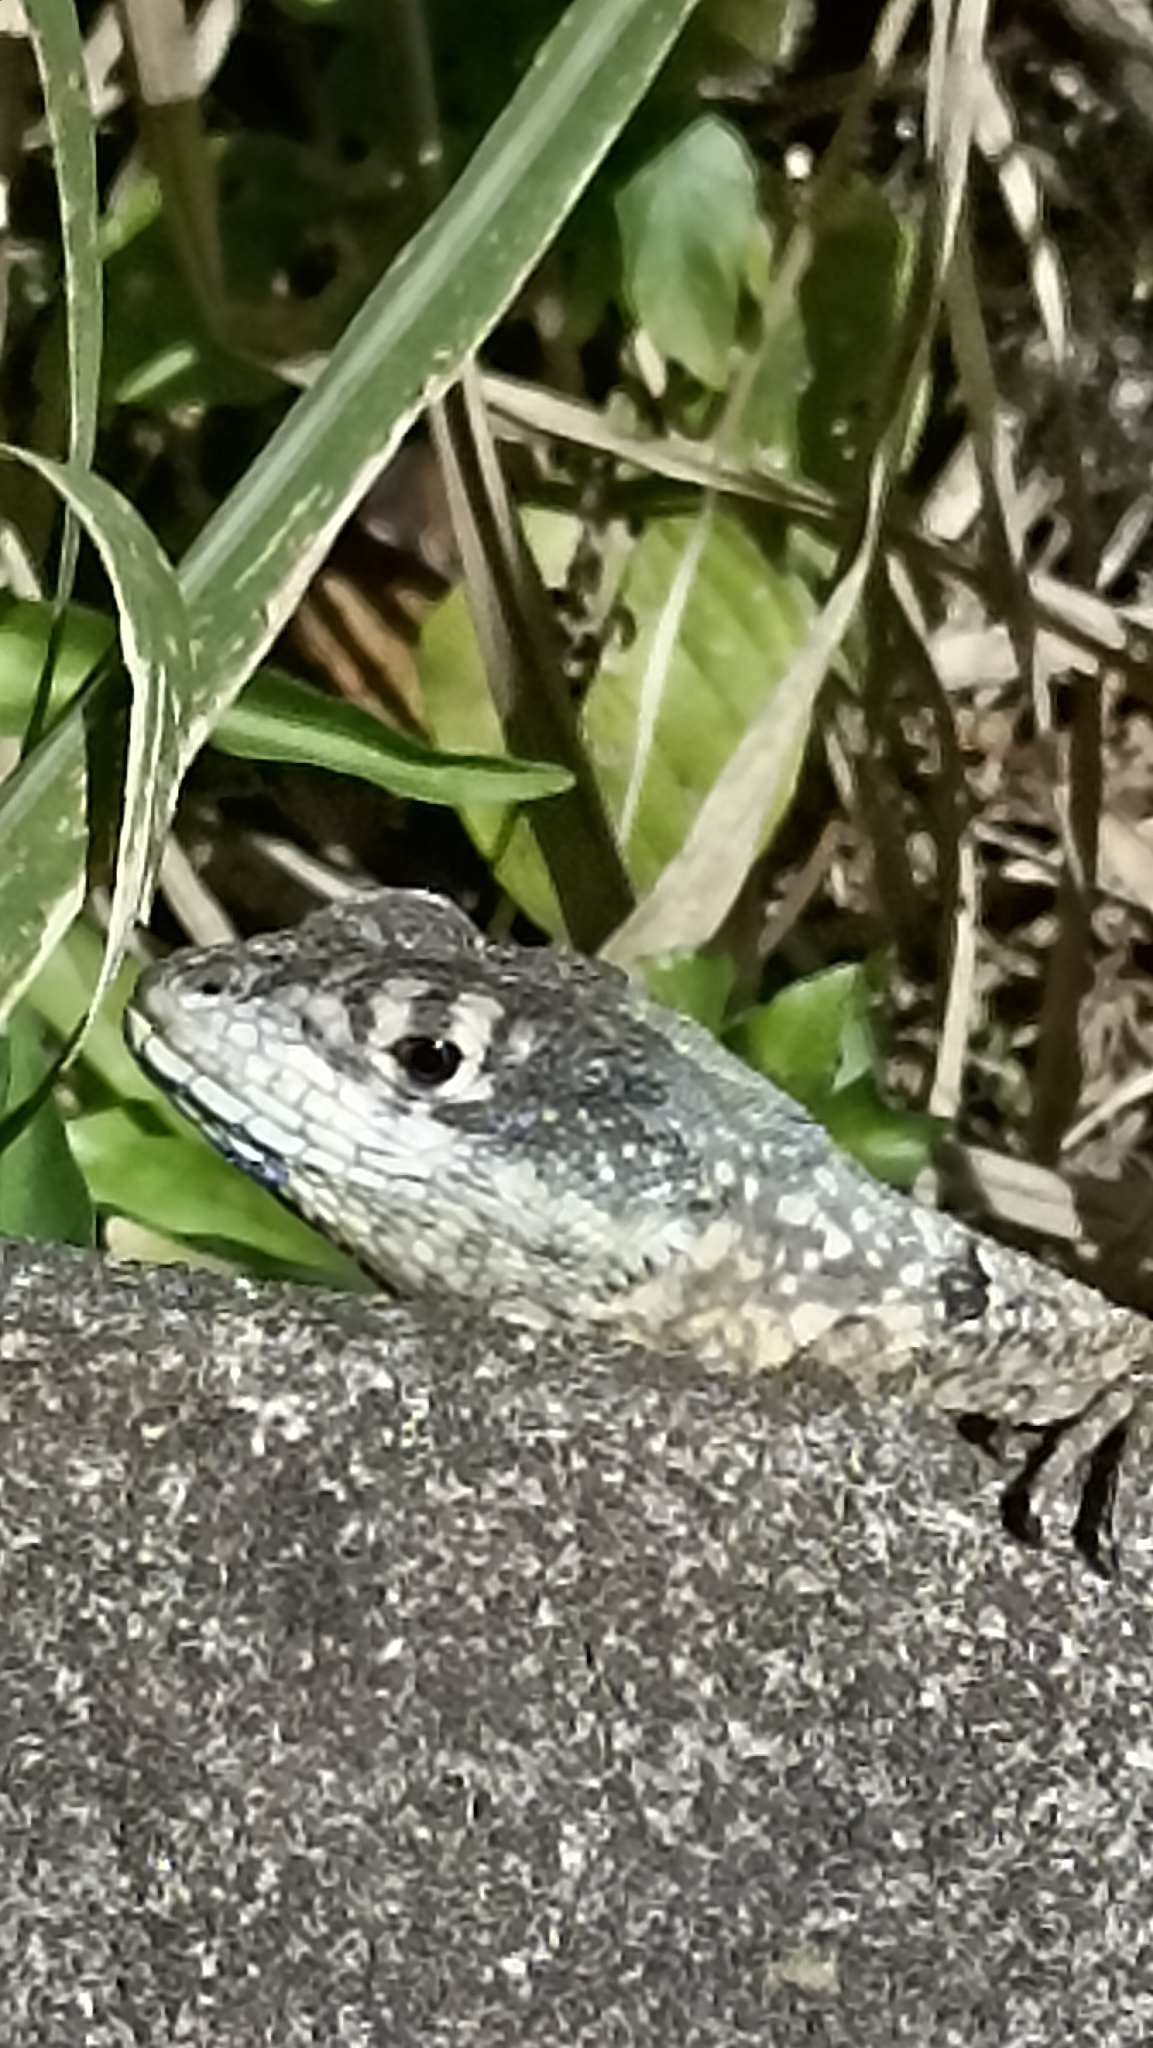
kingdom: Animalia
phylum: Chordata
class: Squamata
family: Tropiduridae
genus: Tropidurus
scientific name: Tropidurus torquatus
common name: Amazon lava lizard
